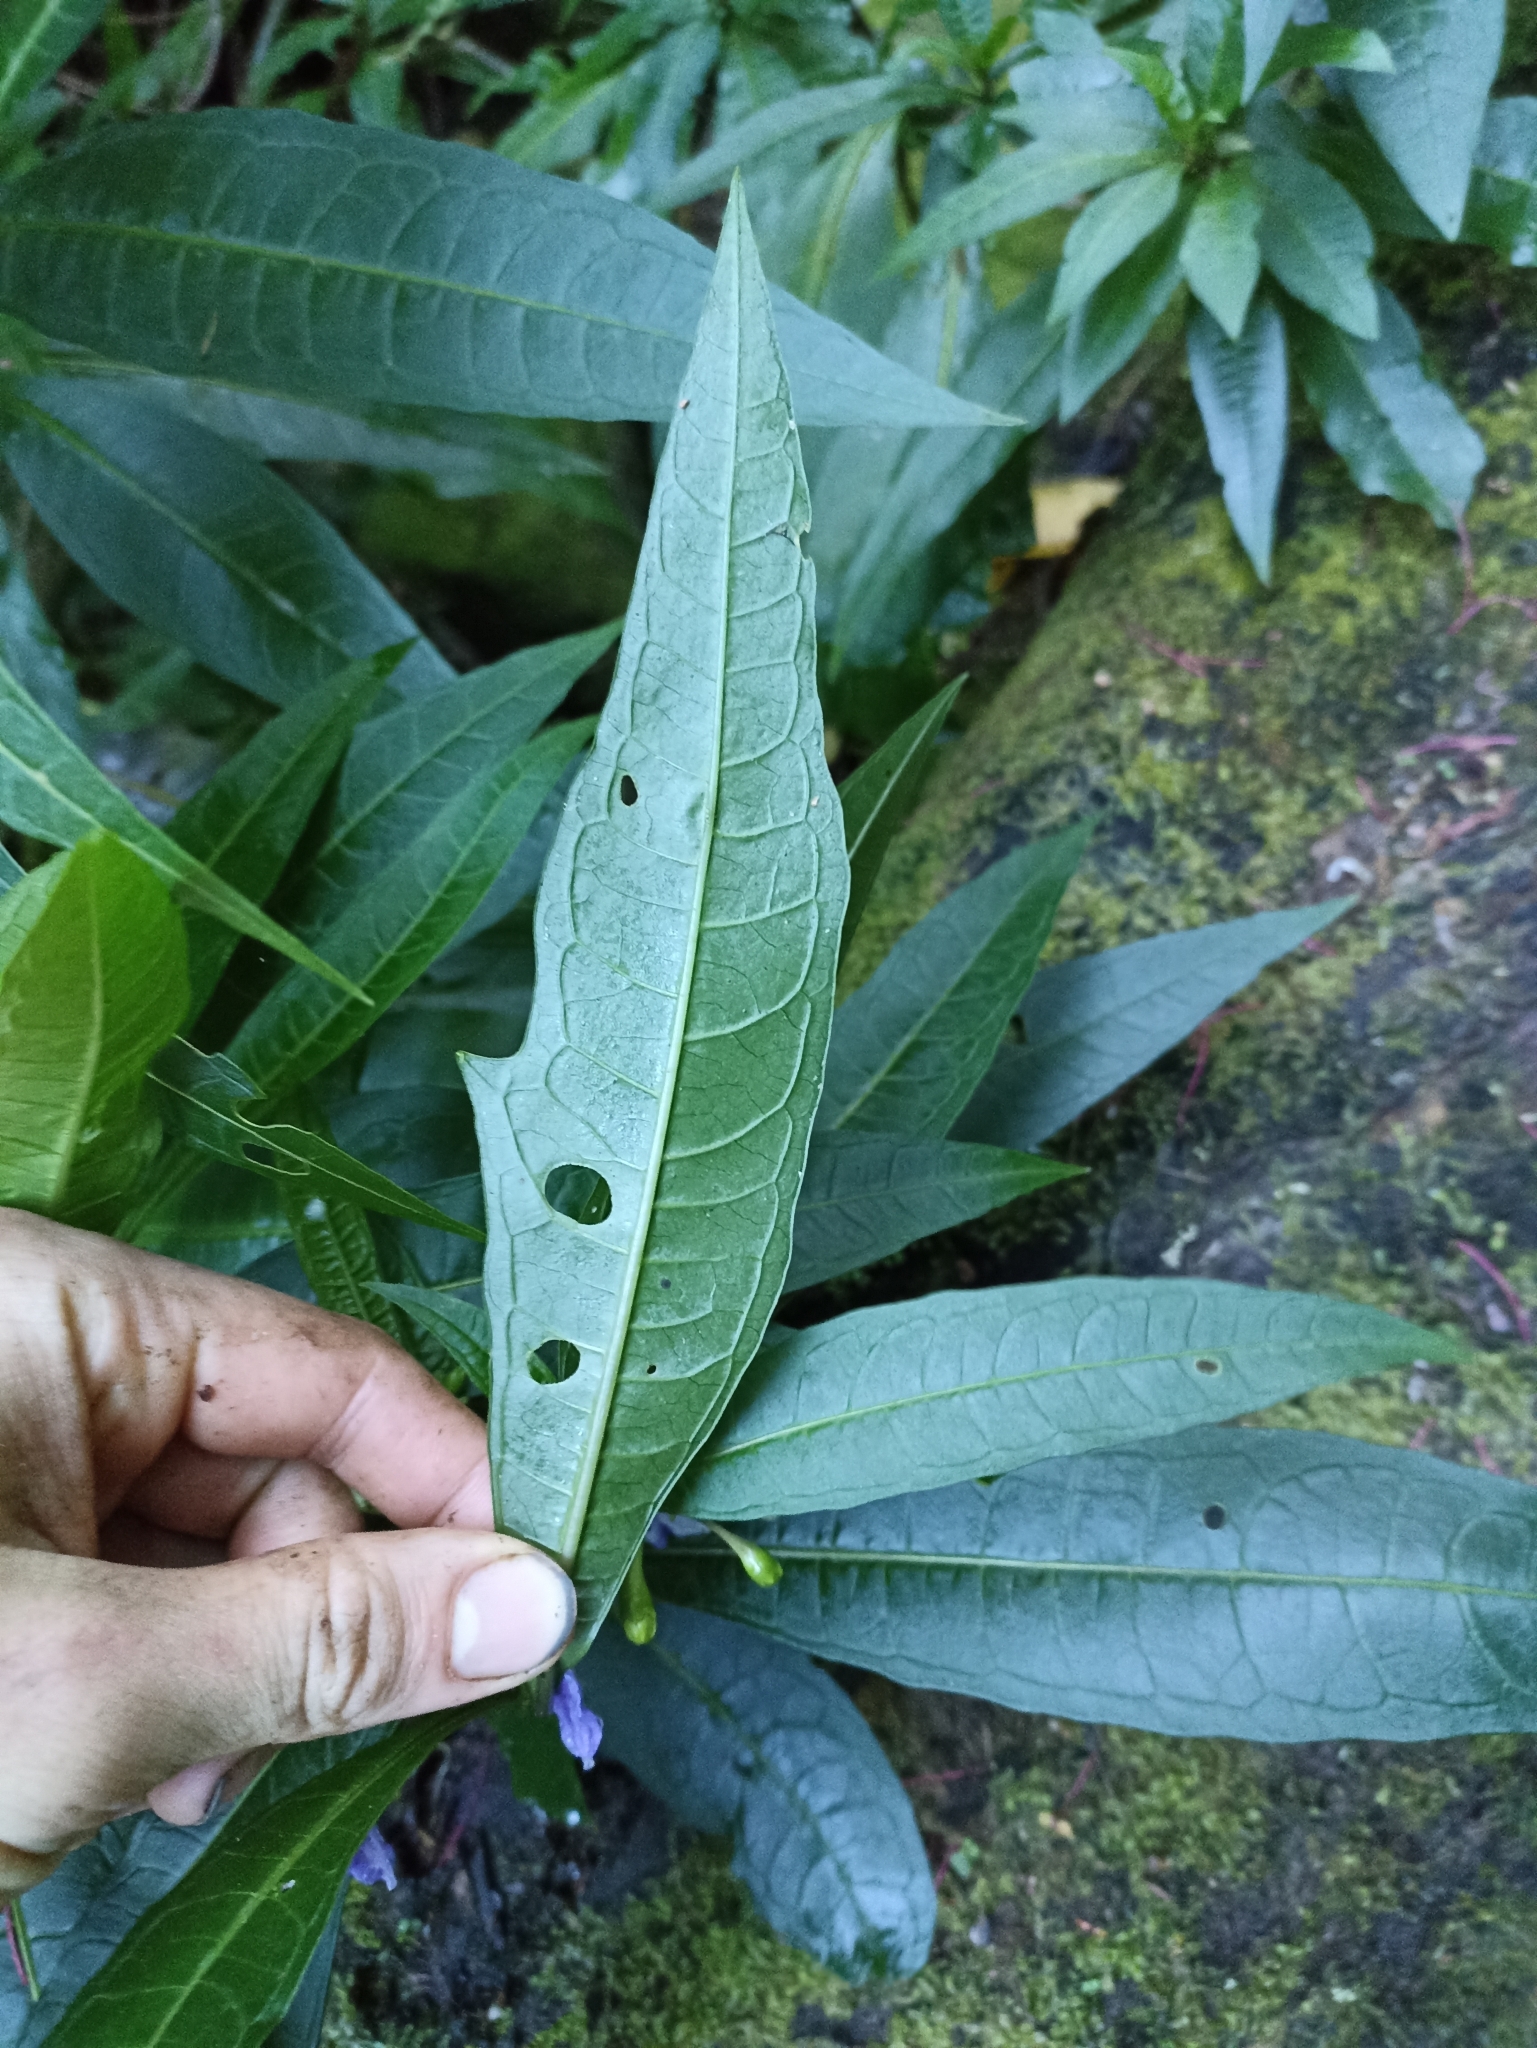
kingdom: Plantae
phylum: Tracheophyta
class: Magnoliopsida
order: Solanales
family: Solanaceae
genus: Solanum
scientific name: Solanum aviculare
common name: New zealand nightshade
